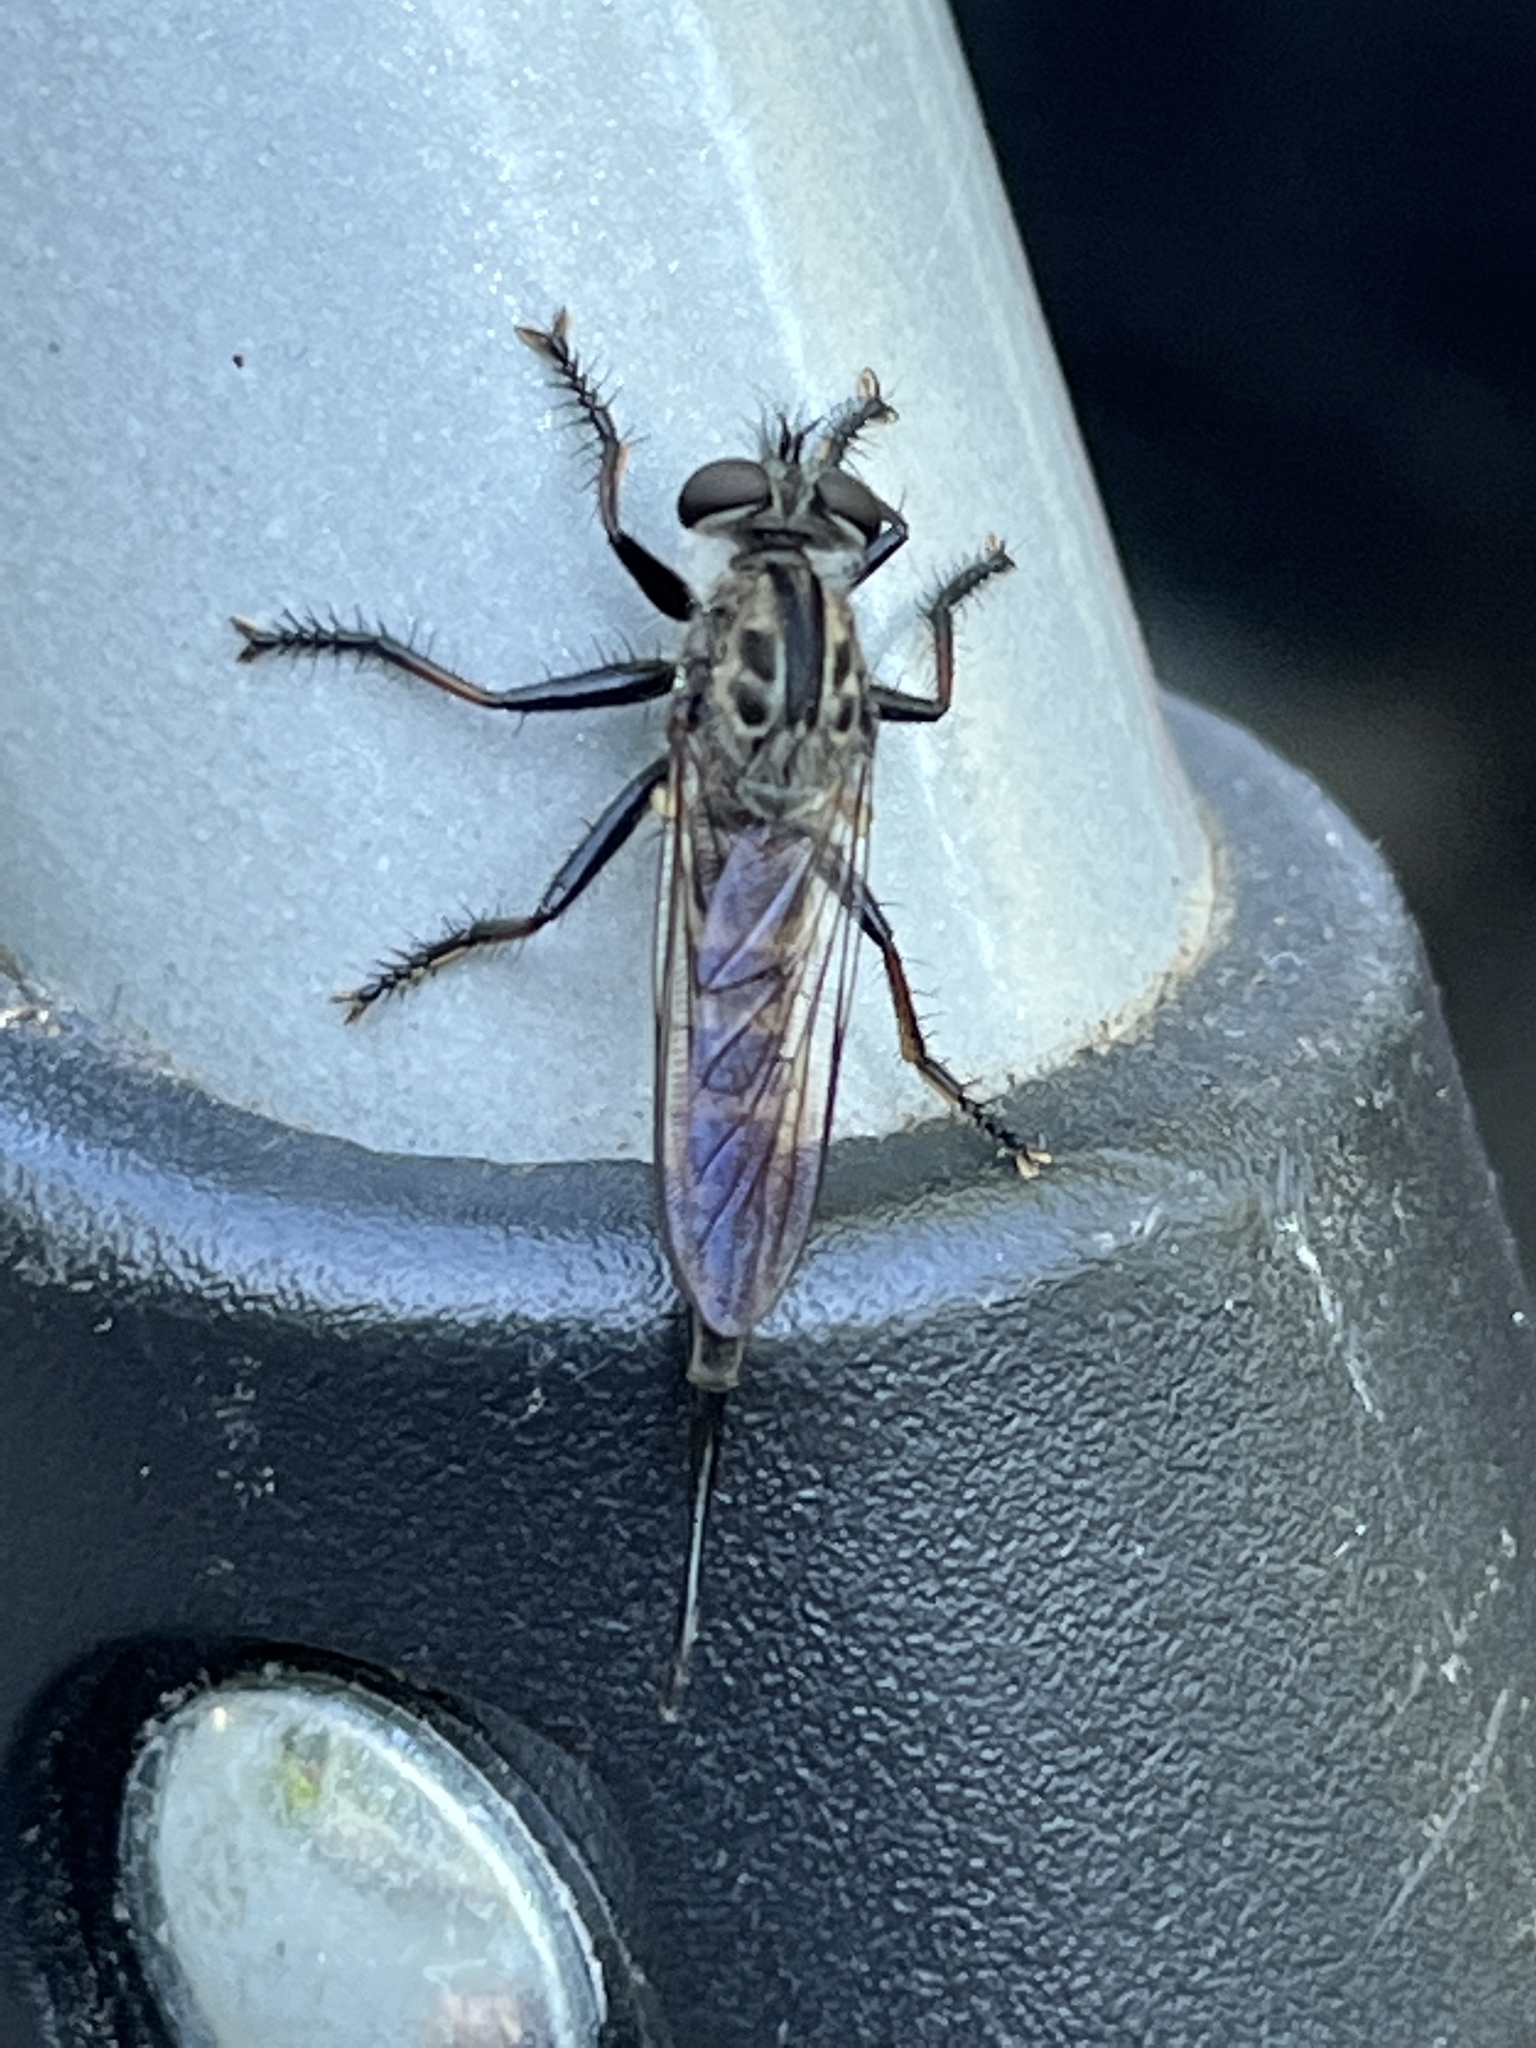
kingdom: Animalia
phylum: Arthropoda
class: Insecta
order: Diptera
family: Asilidae
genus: Efferia
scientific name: Efferia aestuans
